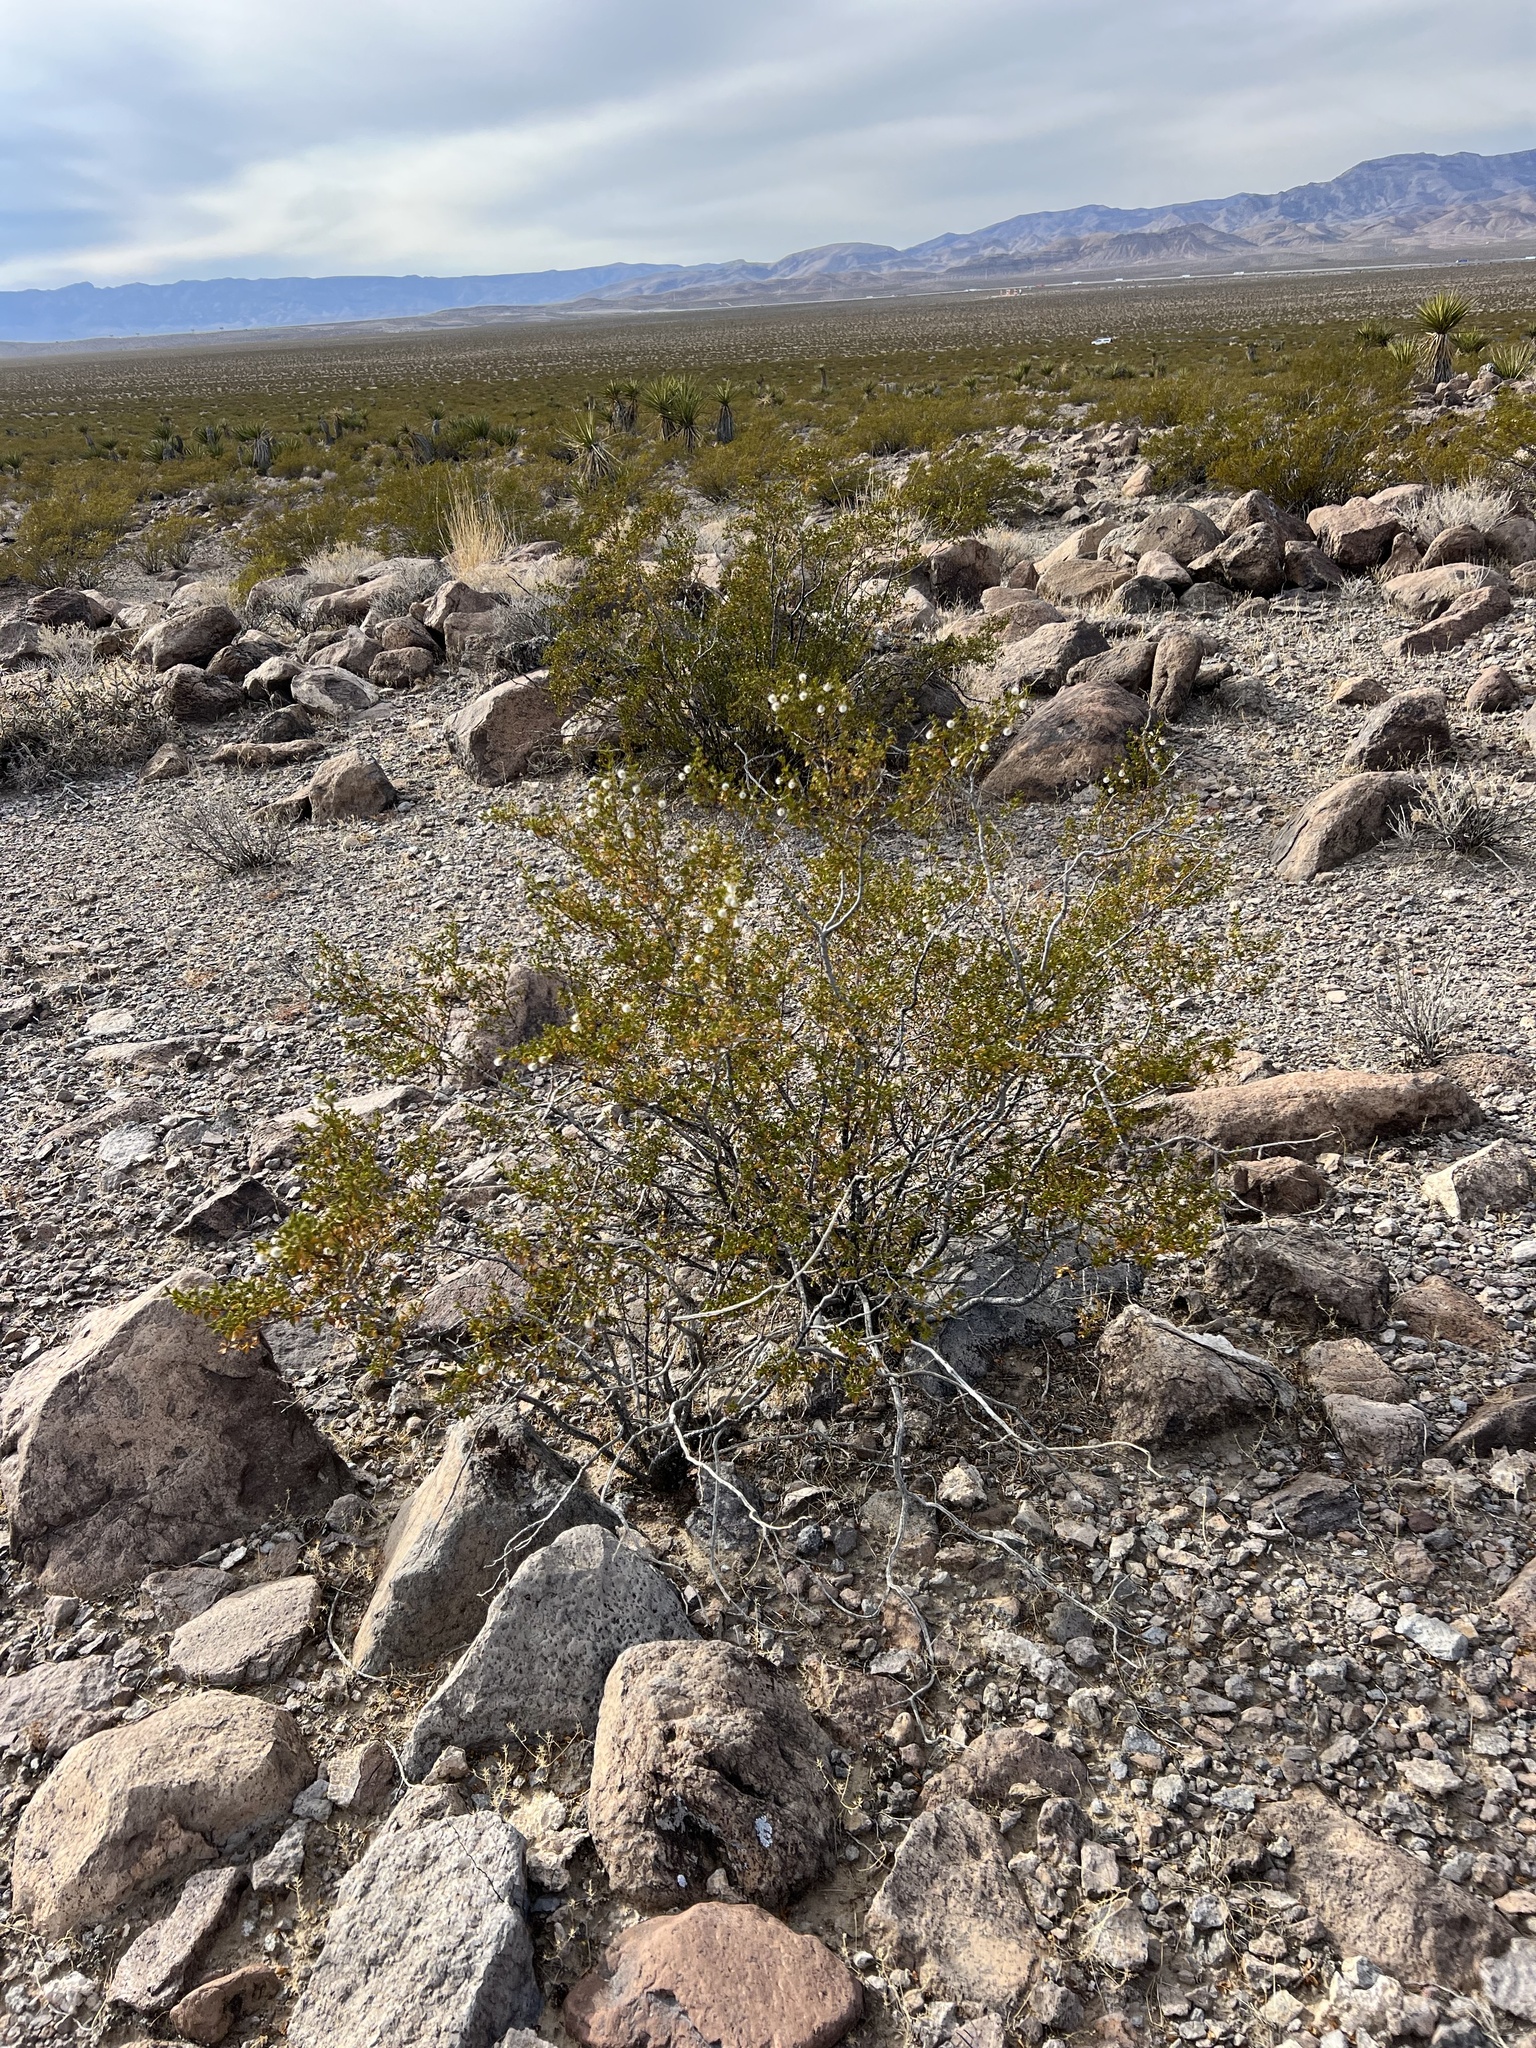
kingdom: Plantae
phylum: Tracheophyta
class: Magnoliopsida
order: Zygophyllales
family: Zygophyllaceae
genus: Larrea
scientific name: Larrea tridentata
